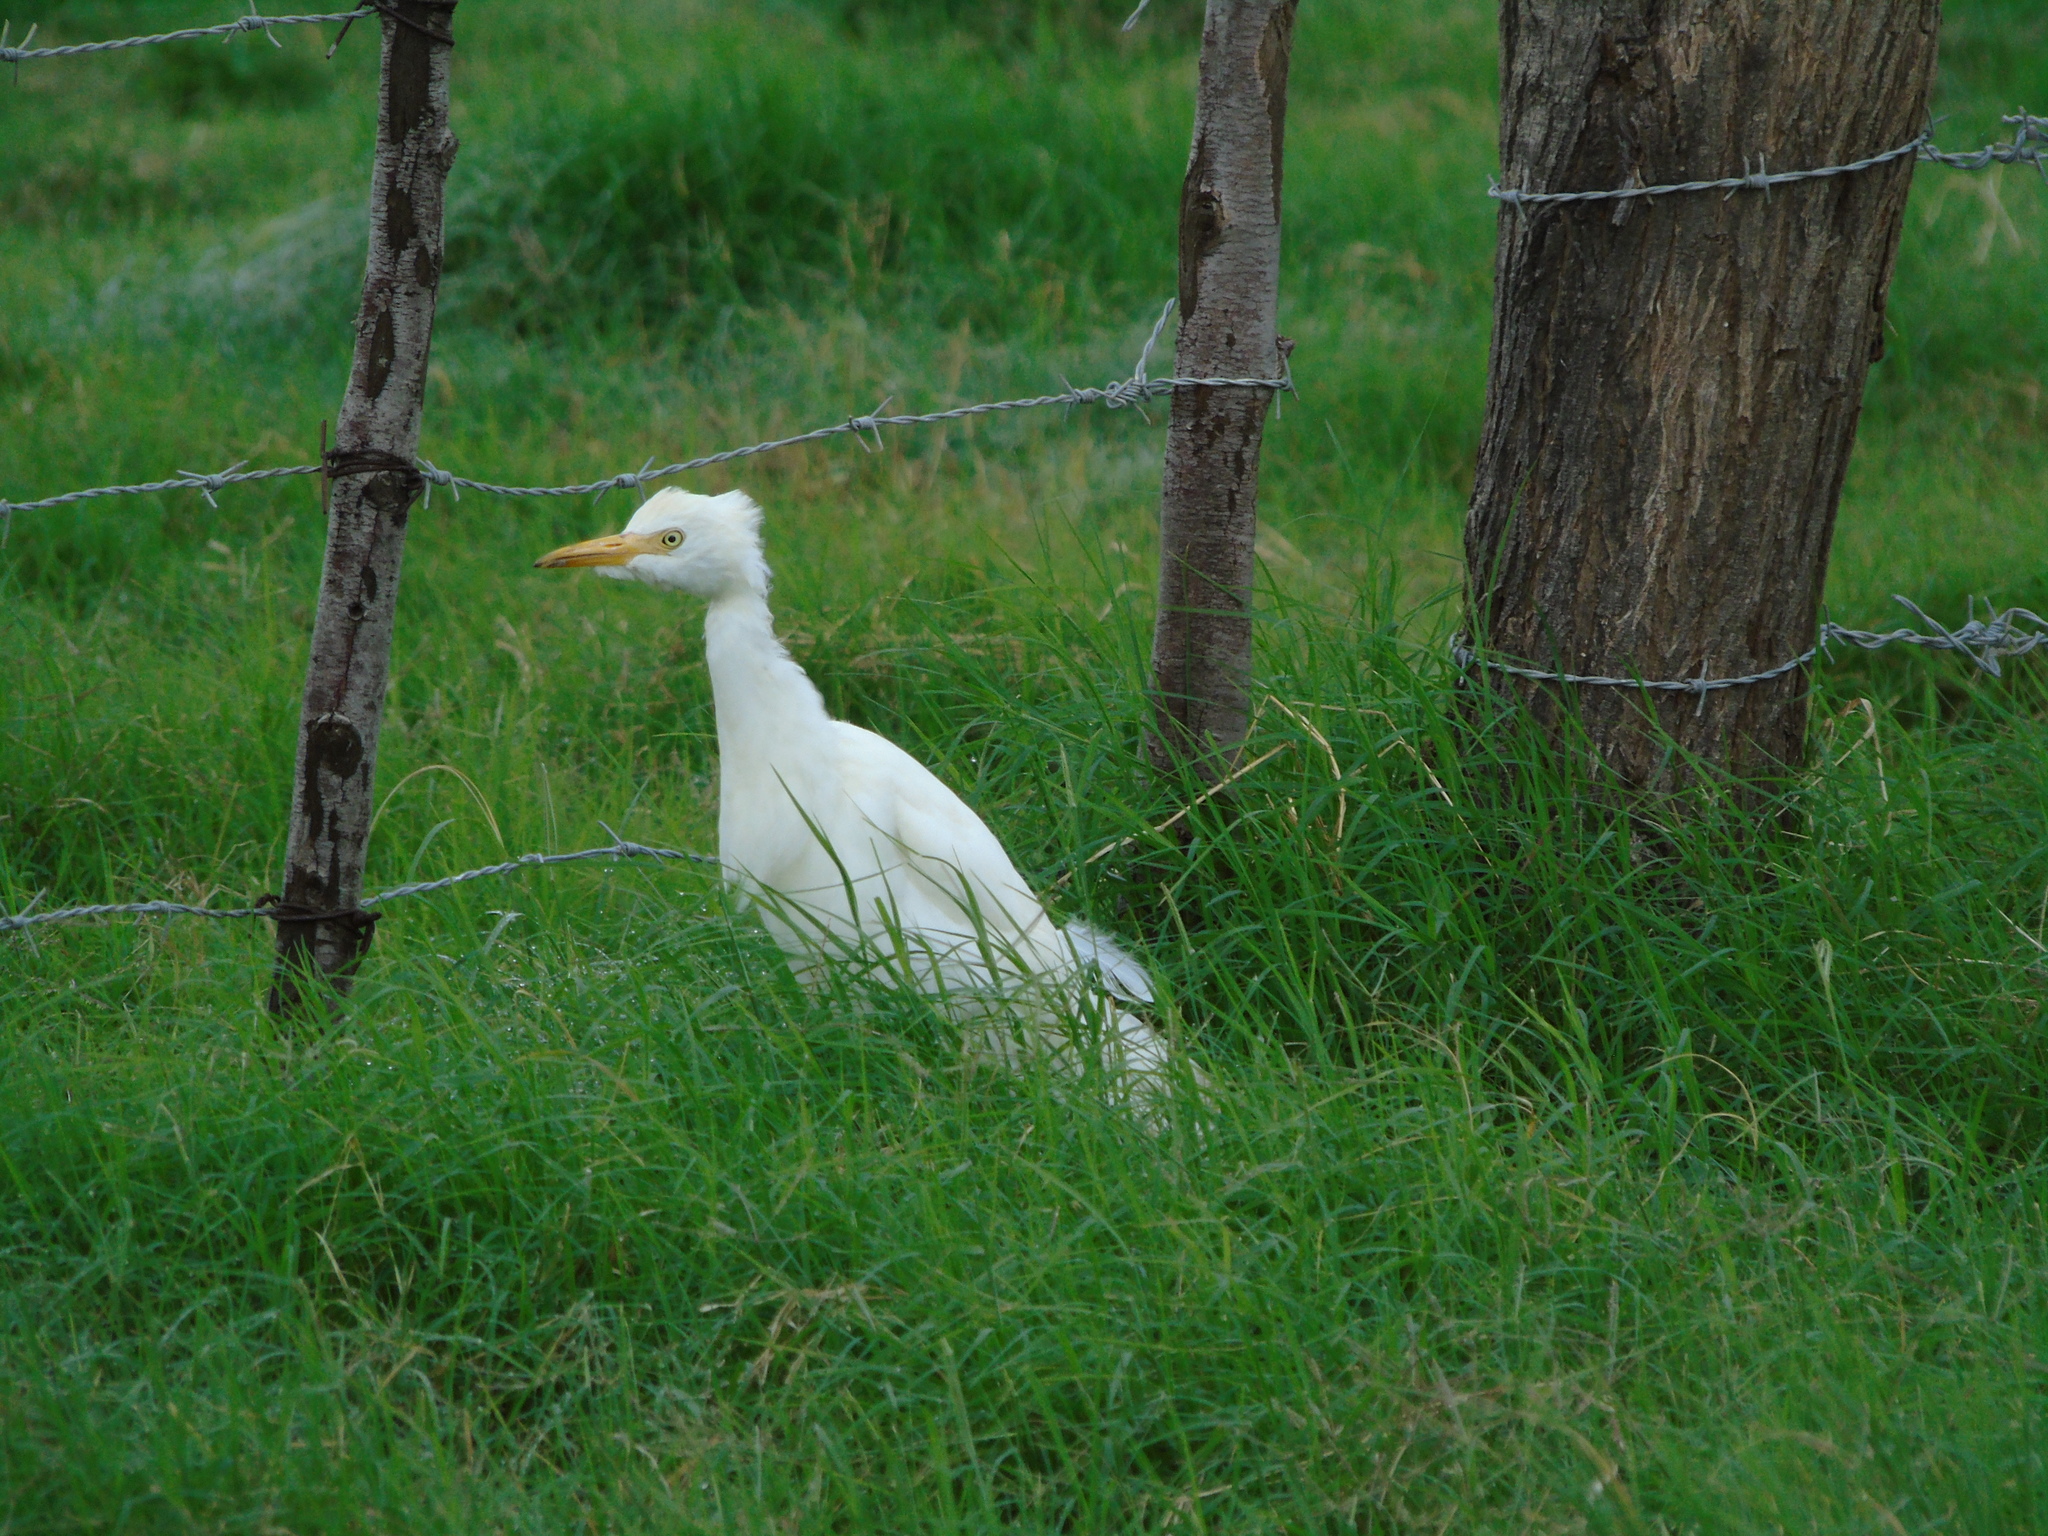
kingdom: Animalia
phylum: Chordata
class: Aves
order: Pelecaniformes
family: Ardeidae
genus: Bubulcus
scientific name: Bubulcus ibis
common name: Cattle egret
